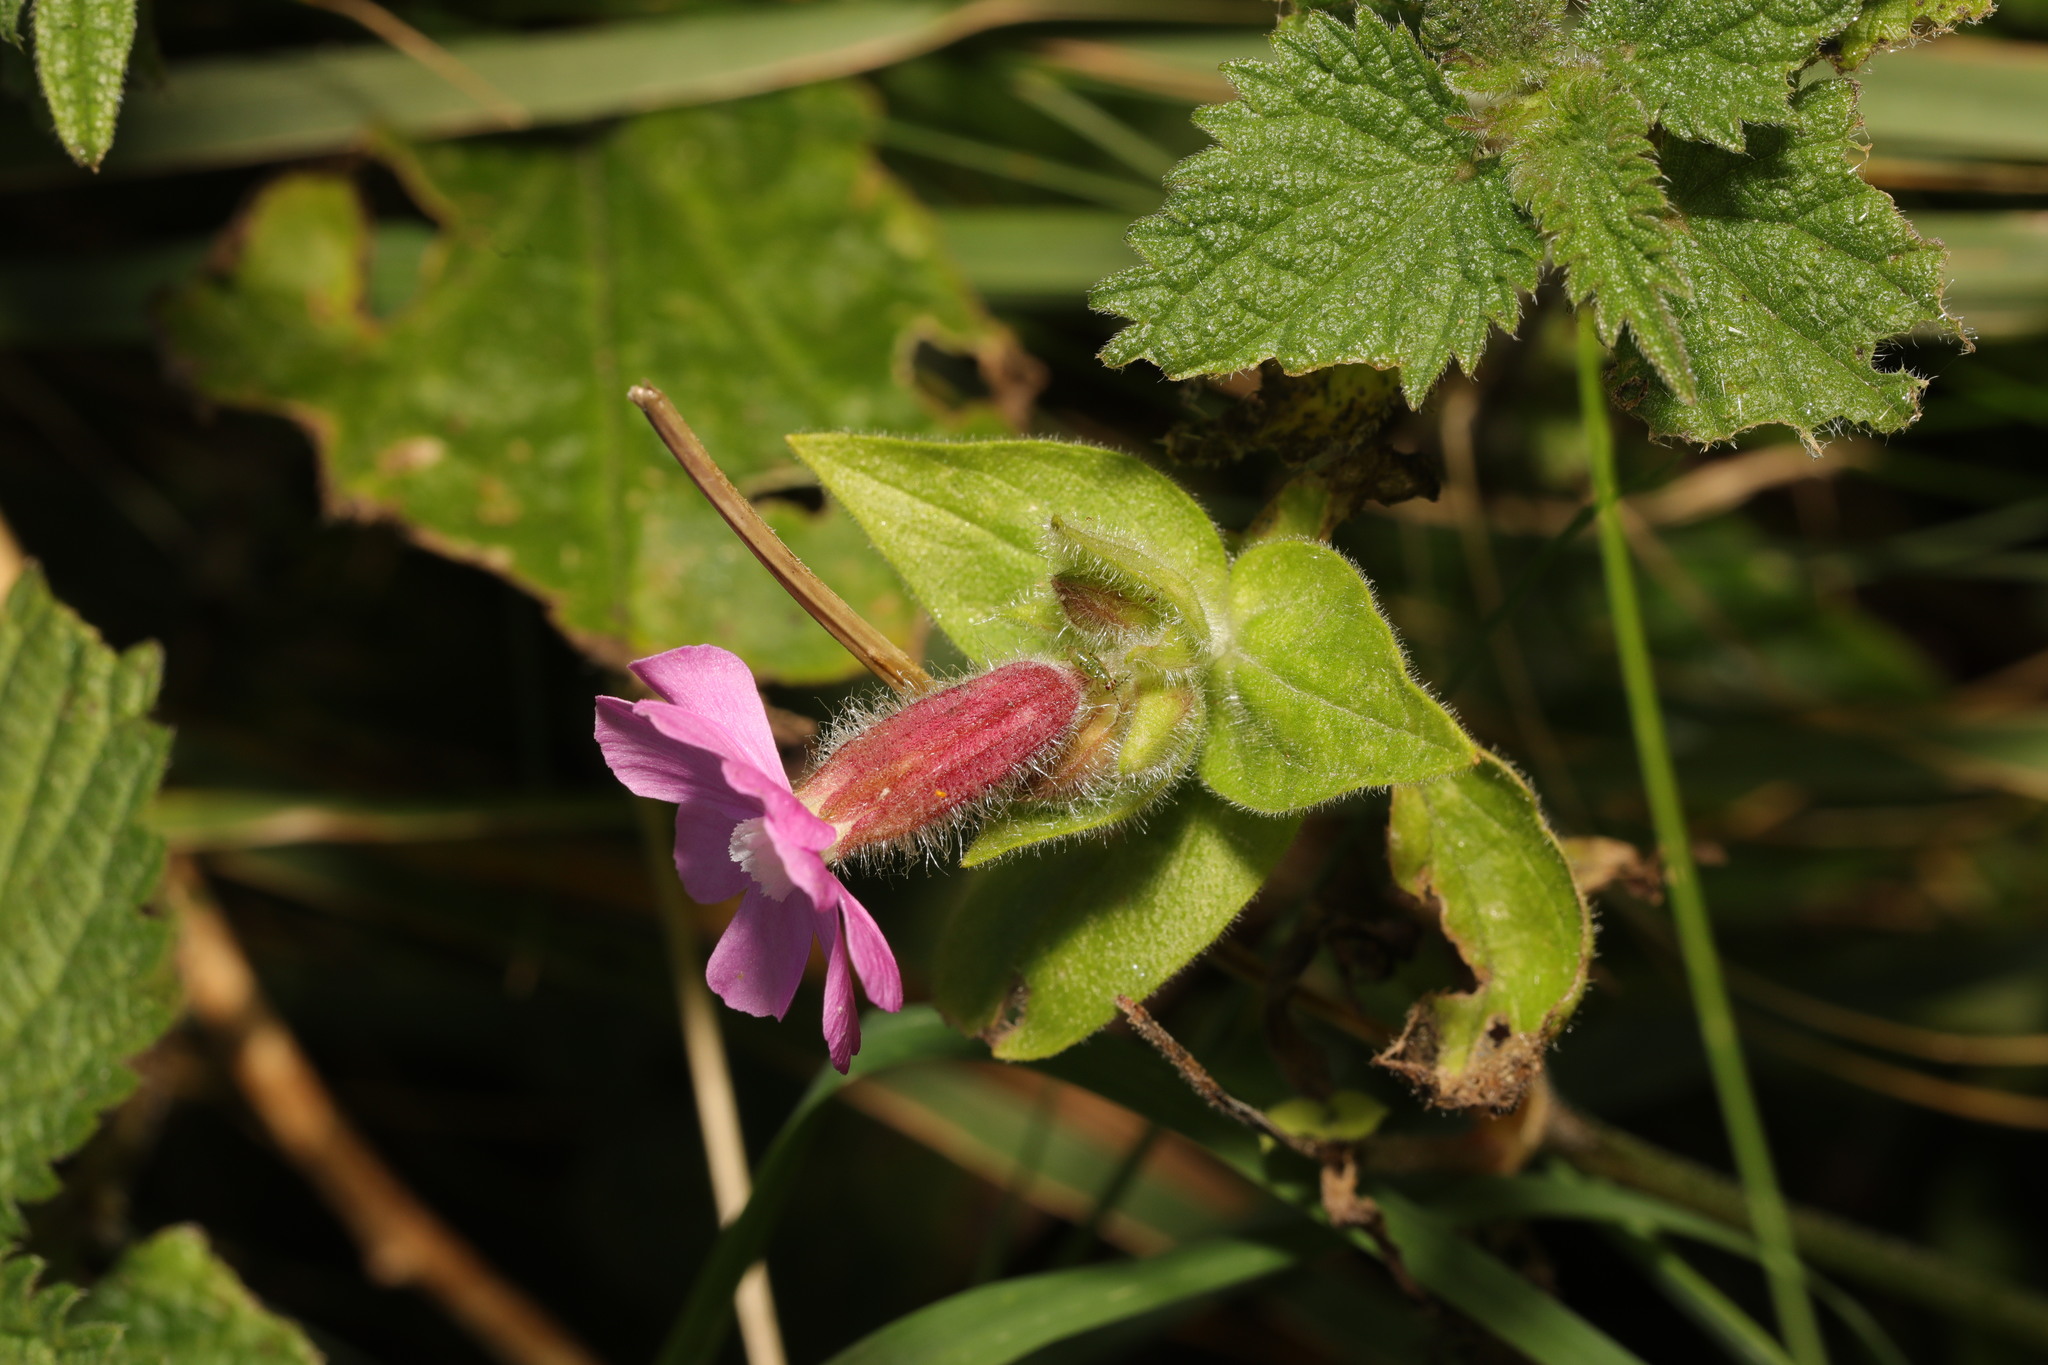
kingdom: Plantae
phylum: Tracheophyta
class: Magnoliopsida
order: Caryophyllales
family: Caryophyllaceae
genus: Silene
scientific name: Silene dioica
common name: Red campion
